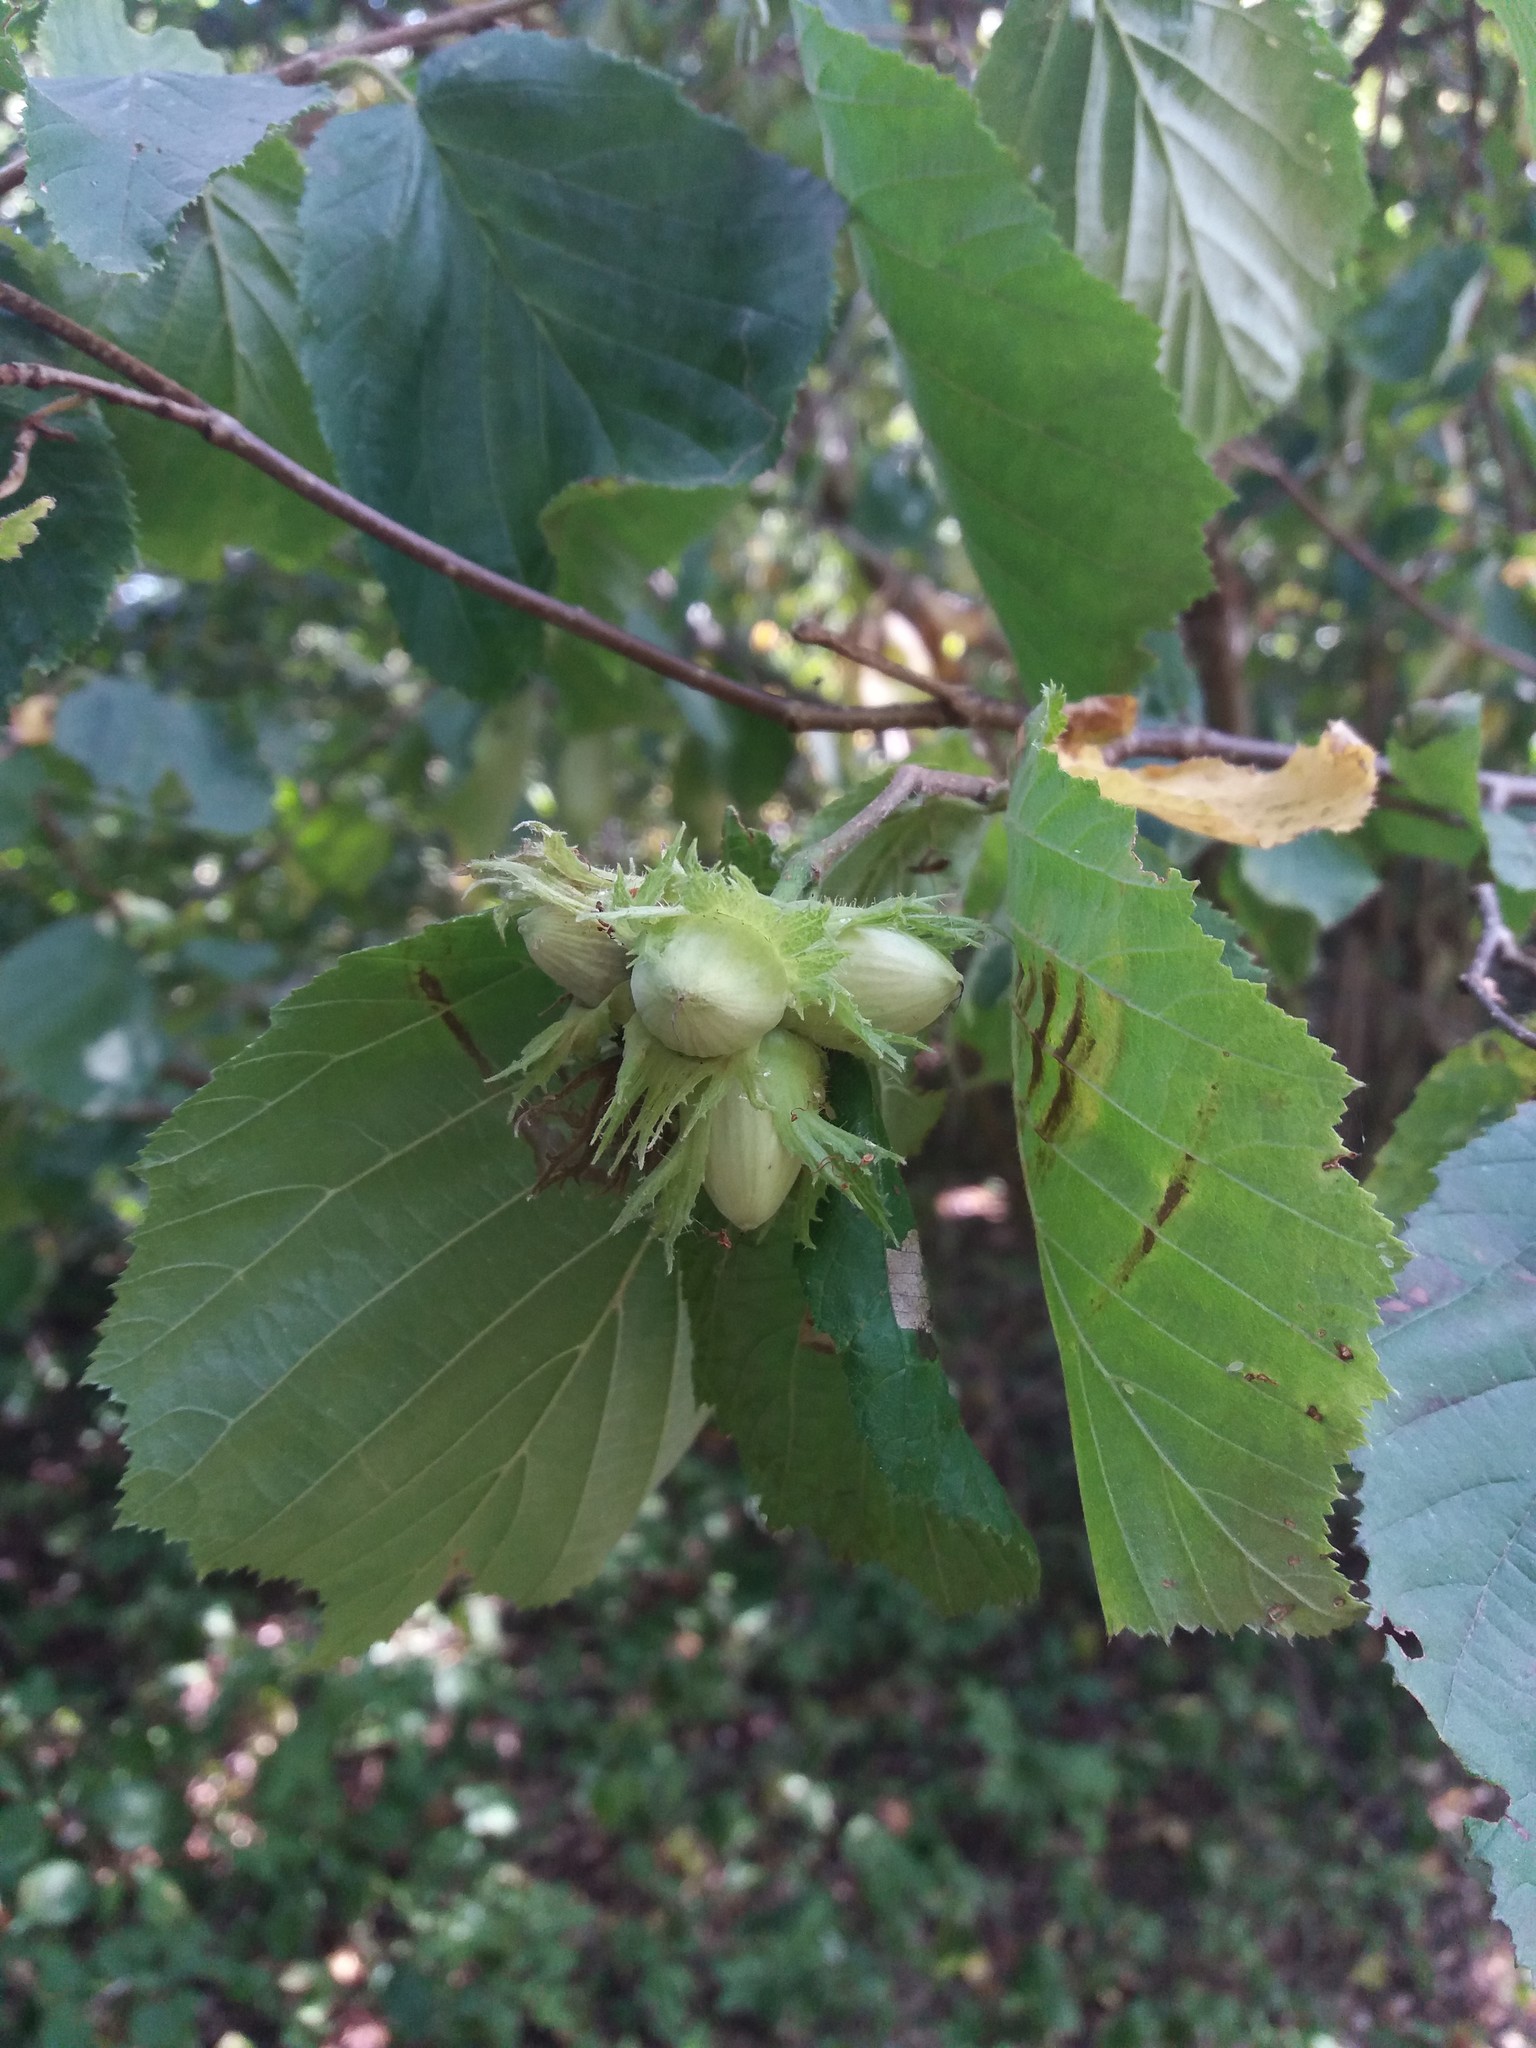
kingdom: Plantae
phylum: Tracheophyta
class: Magnoliopsida
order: Fagales
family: Betulaceae
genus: Corylus
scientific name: Corylus avellana
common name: European hazel
